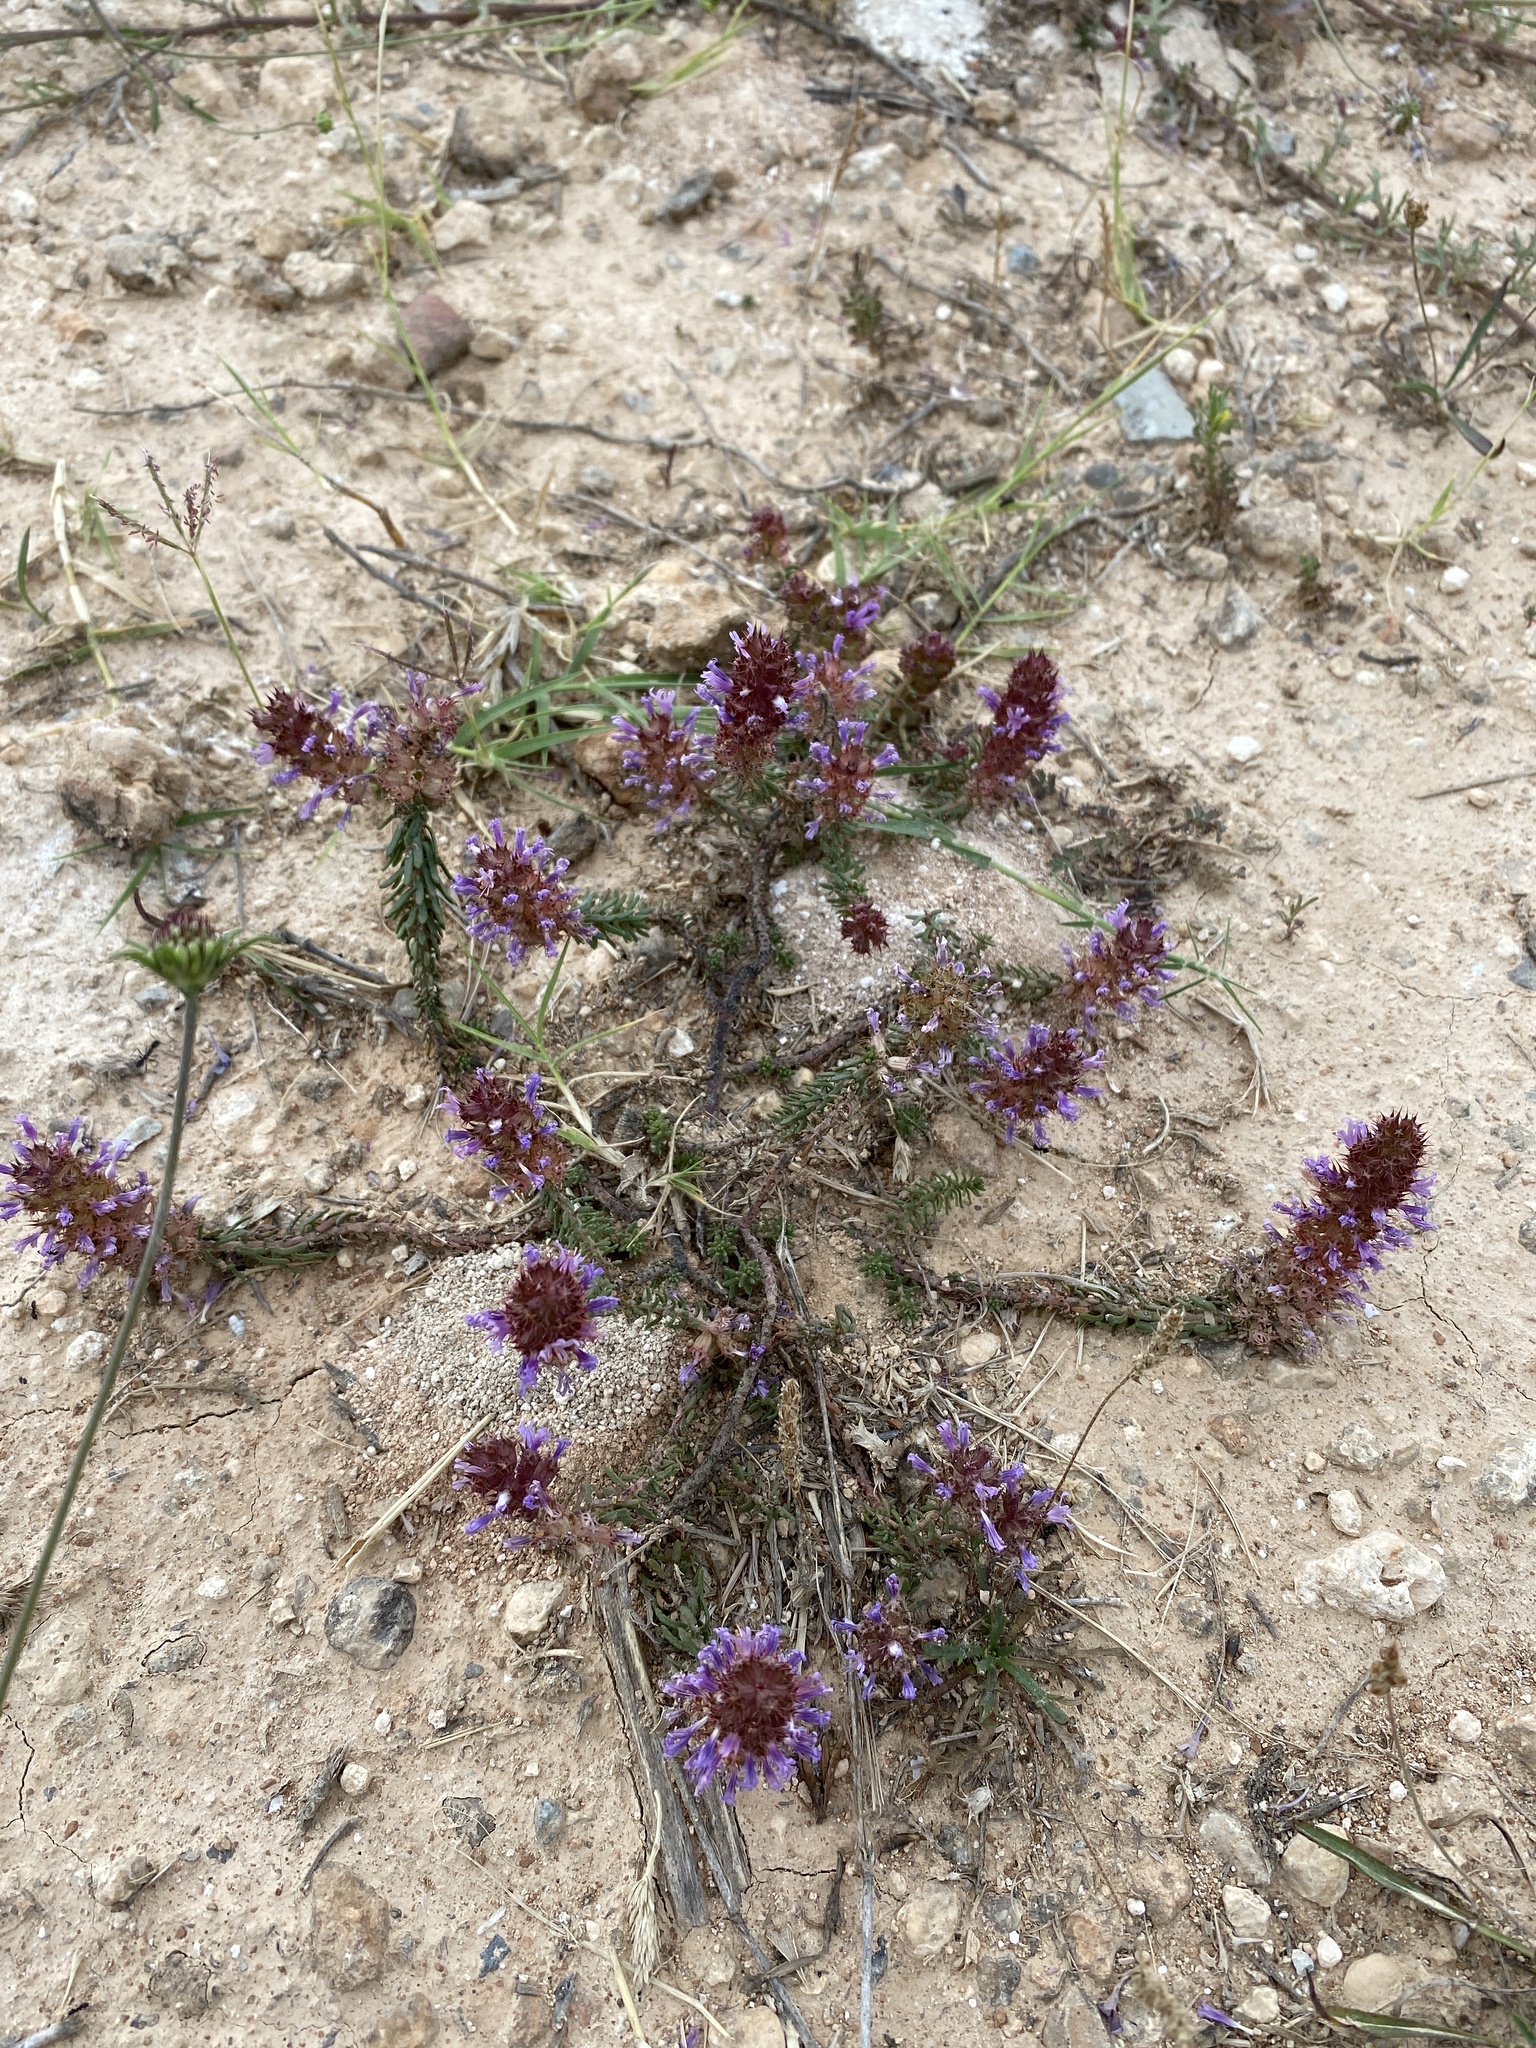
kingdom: Plantae
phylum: Tracheophyta
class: Magnoliopsida
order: Ericales
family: Primulaceae
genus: Coris
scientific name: Coris monspeliensis
